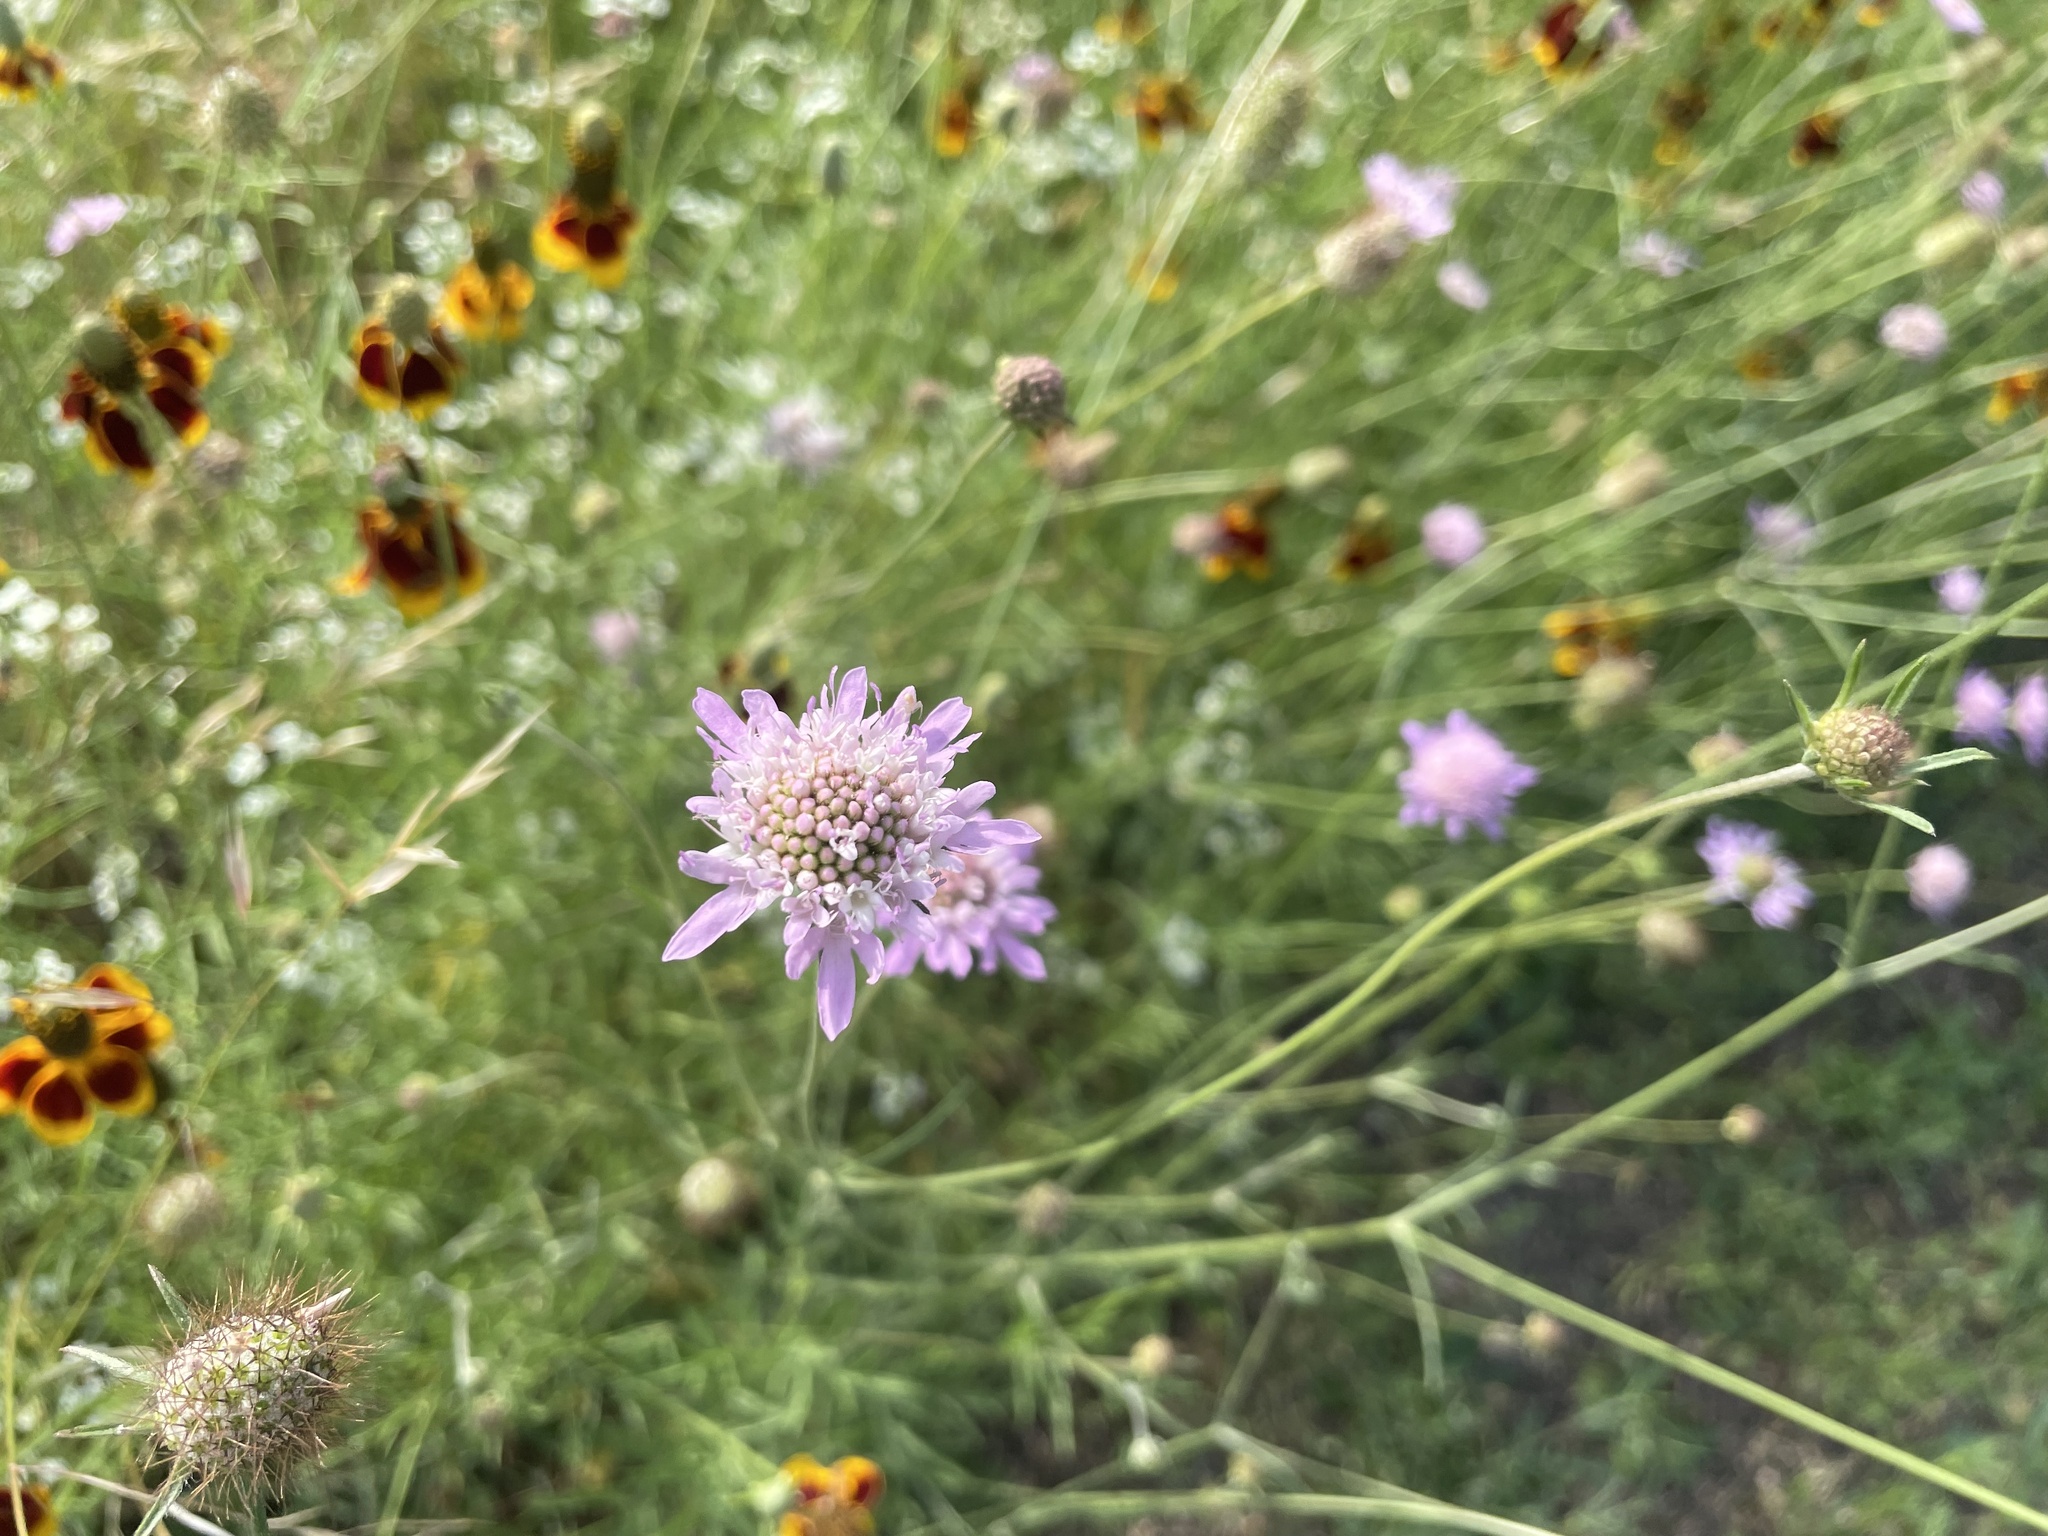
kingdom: Plantae
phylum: Tracheophyta
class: Magnoliopsida
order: Dipsacales
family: Caprifoliaceae
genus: Sixalix
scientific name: Sixalix atropurpurea
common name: Sweet scabious
